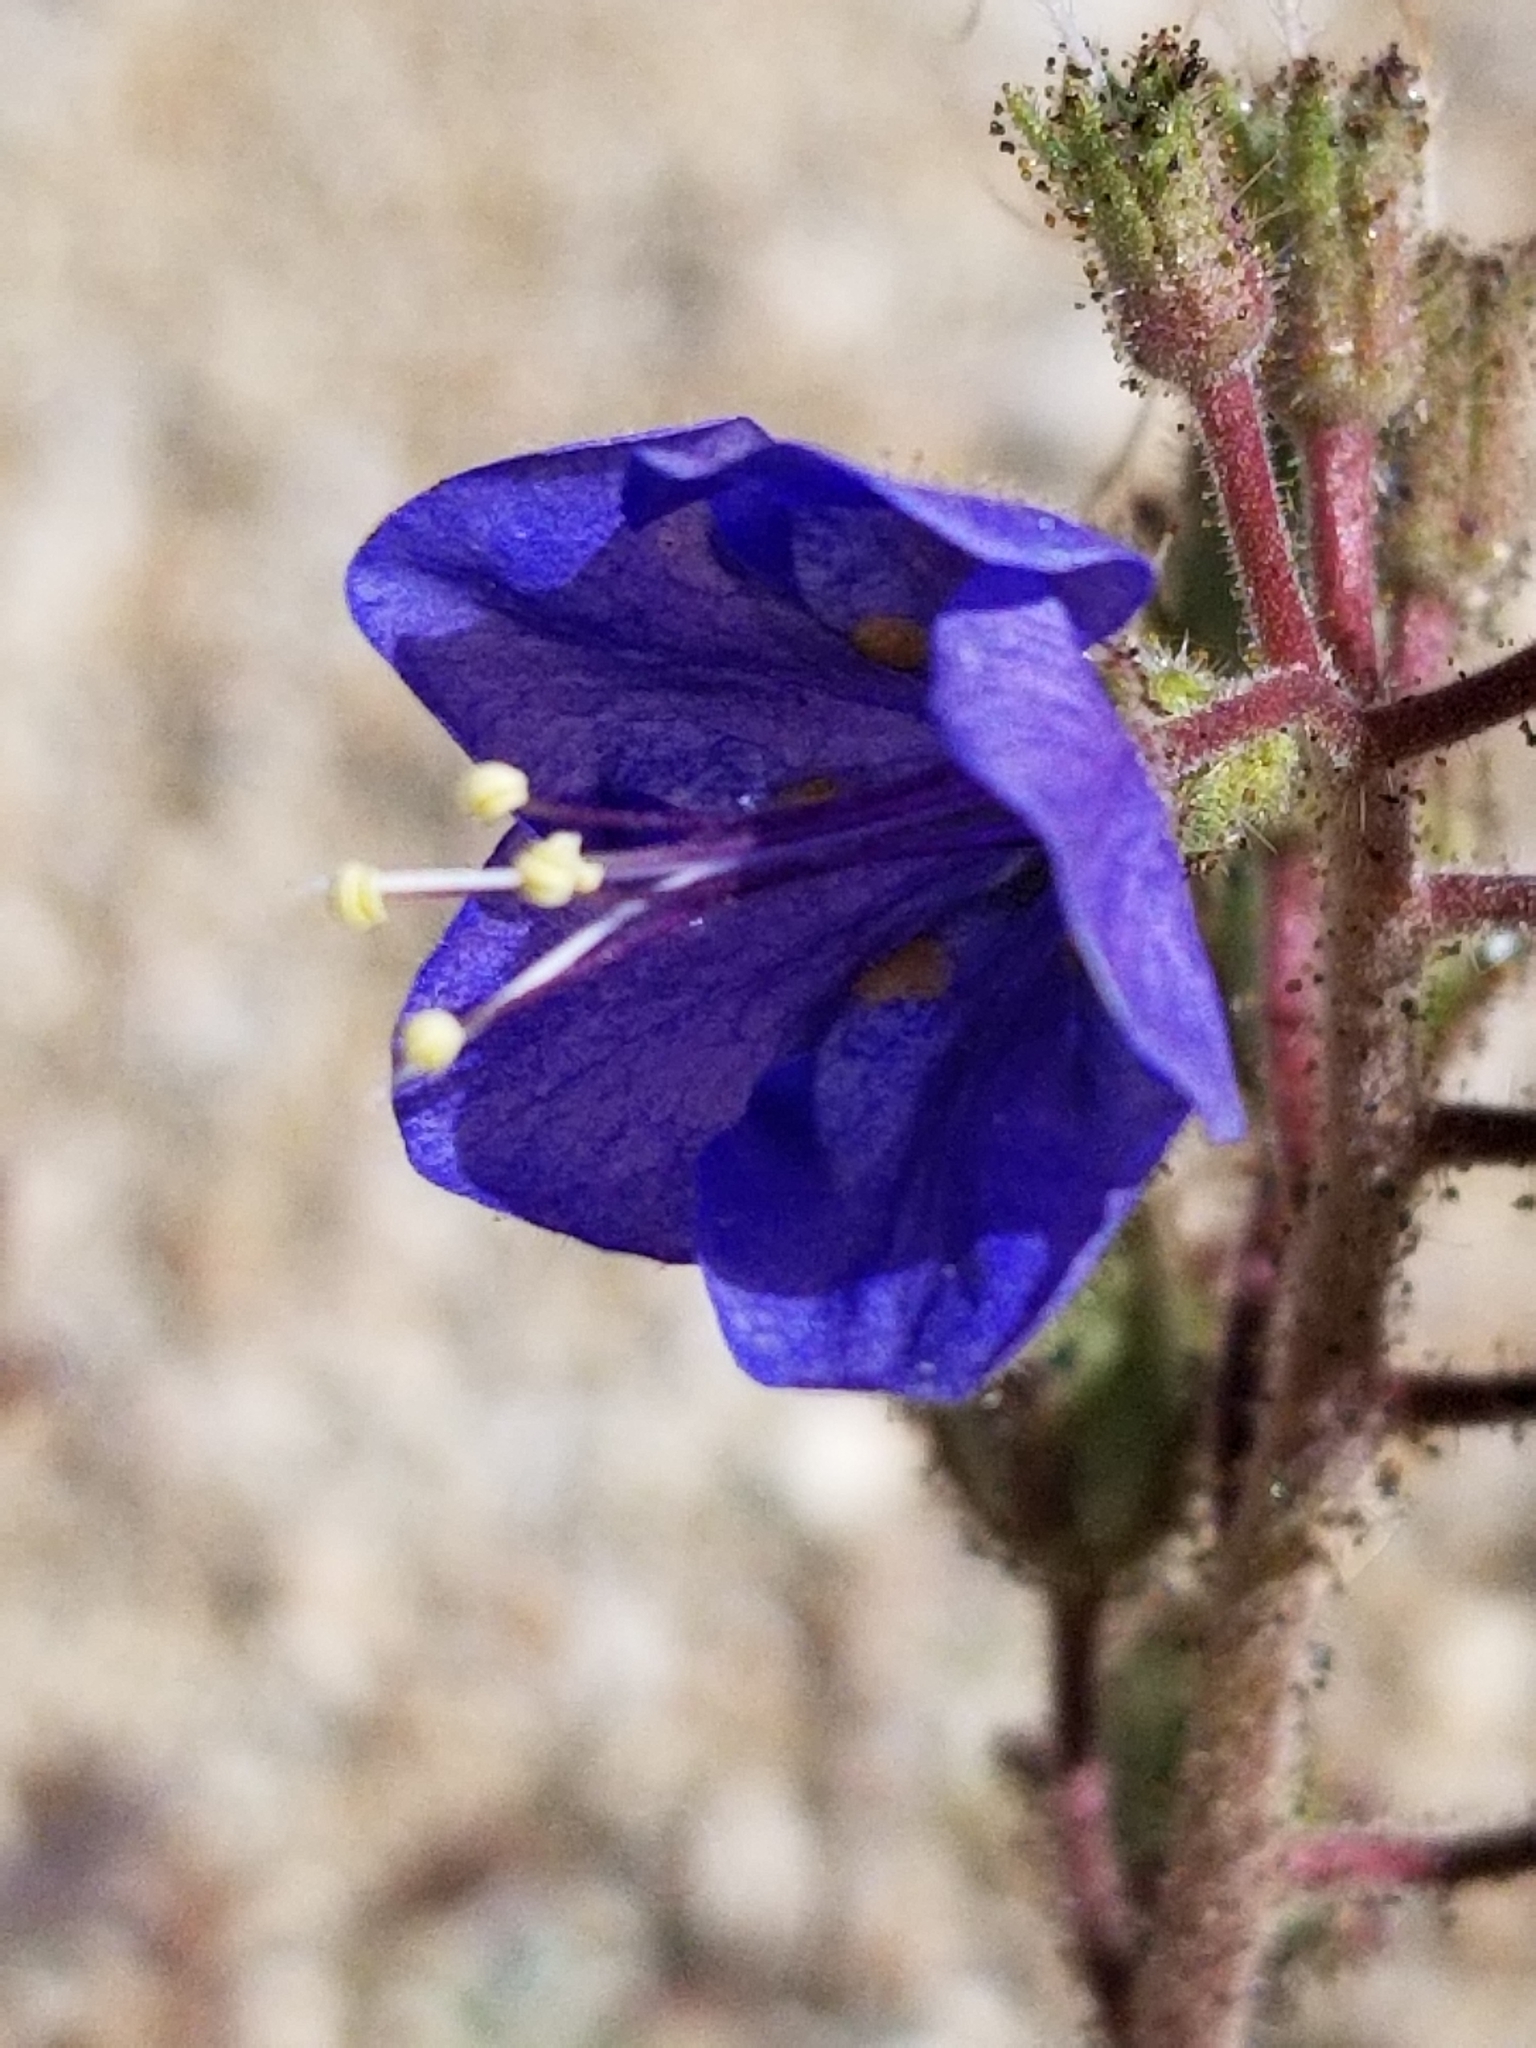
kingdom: Plantae
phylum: Tracheophyta
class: Magnoliopsida
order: Boraginales
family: Hydrophyllaceae
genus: Phacelia
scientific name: Phacelia campanularia
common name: California bluebell
